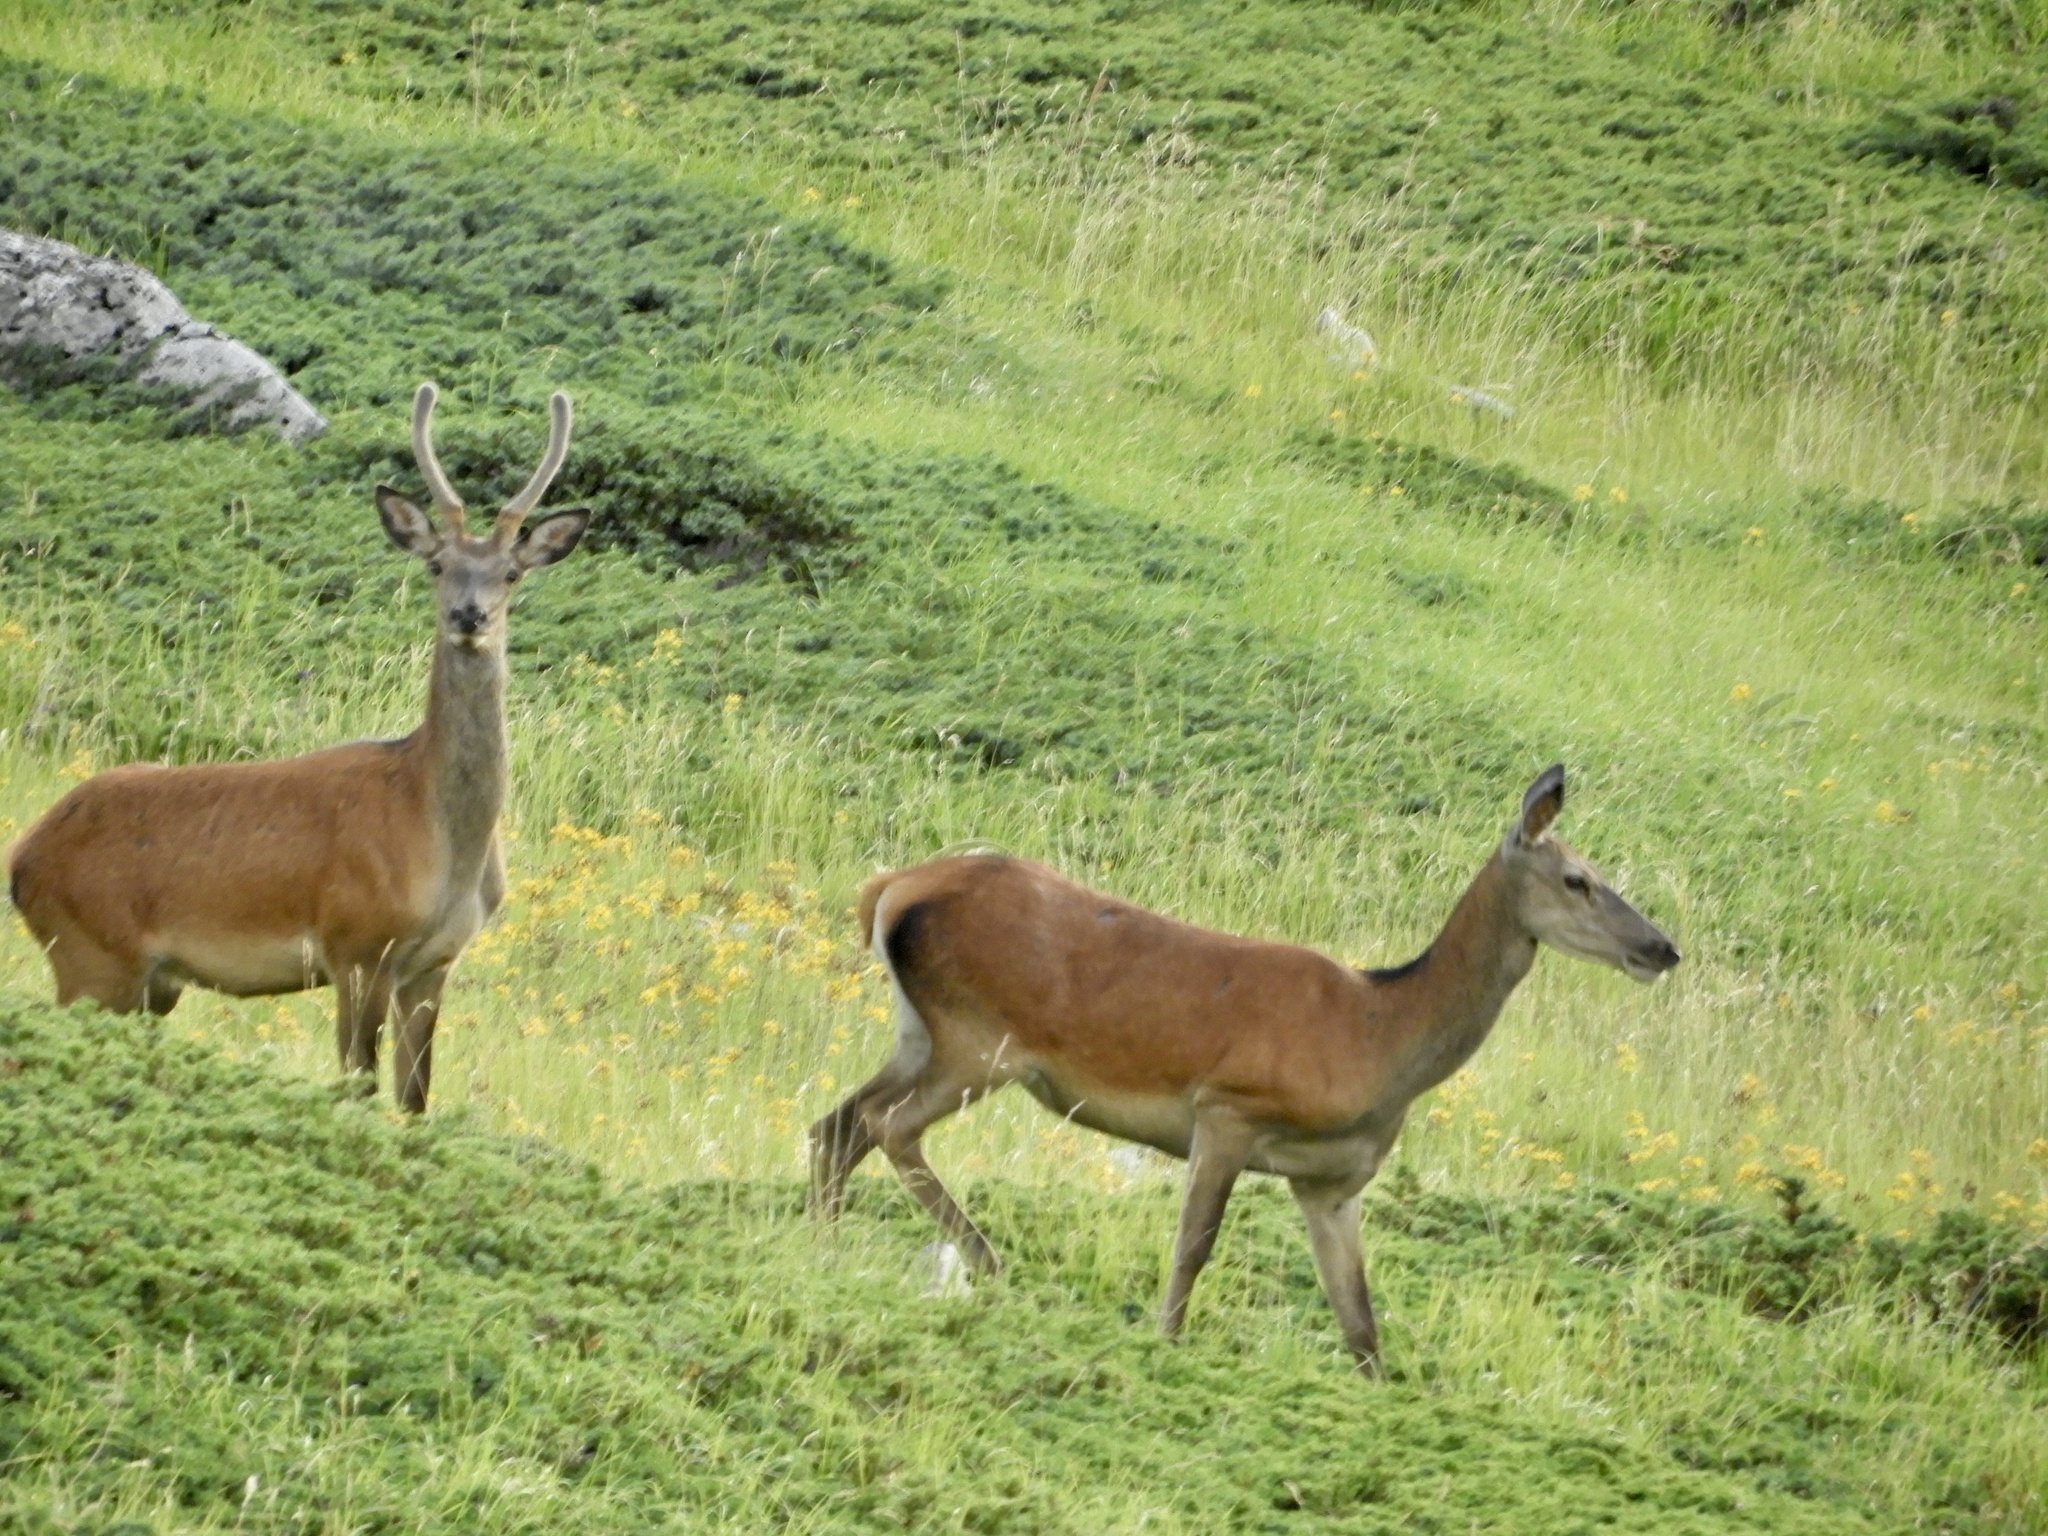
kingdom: Animalia
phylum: Chordata
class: Mammalia
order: Artiodactyla
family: Cervidae
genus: Cervus
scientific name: Cervus elaphus
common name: Red deer
